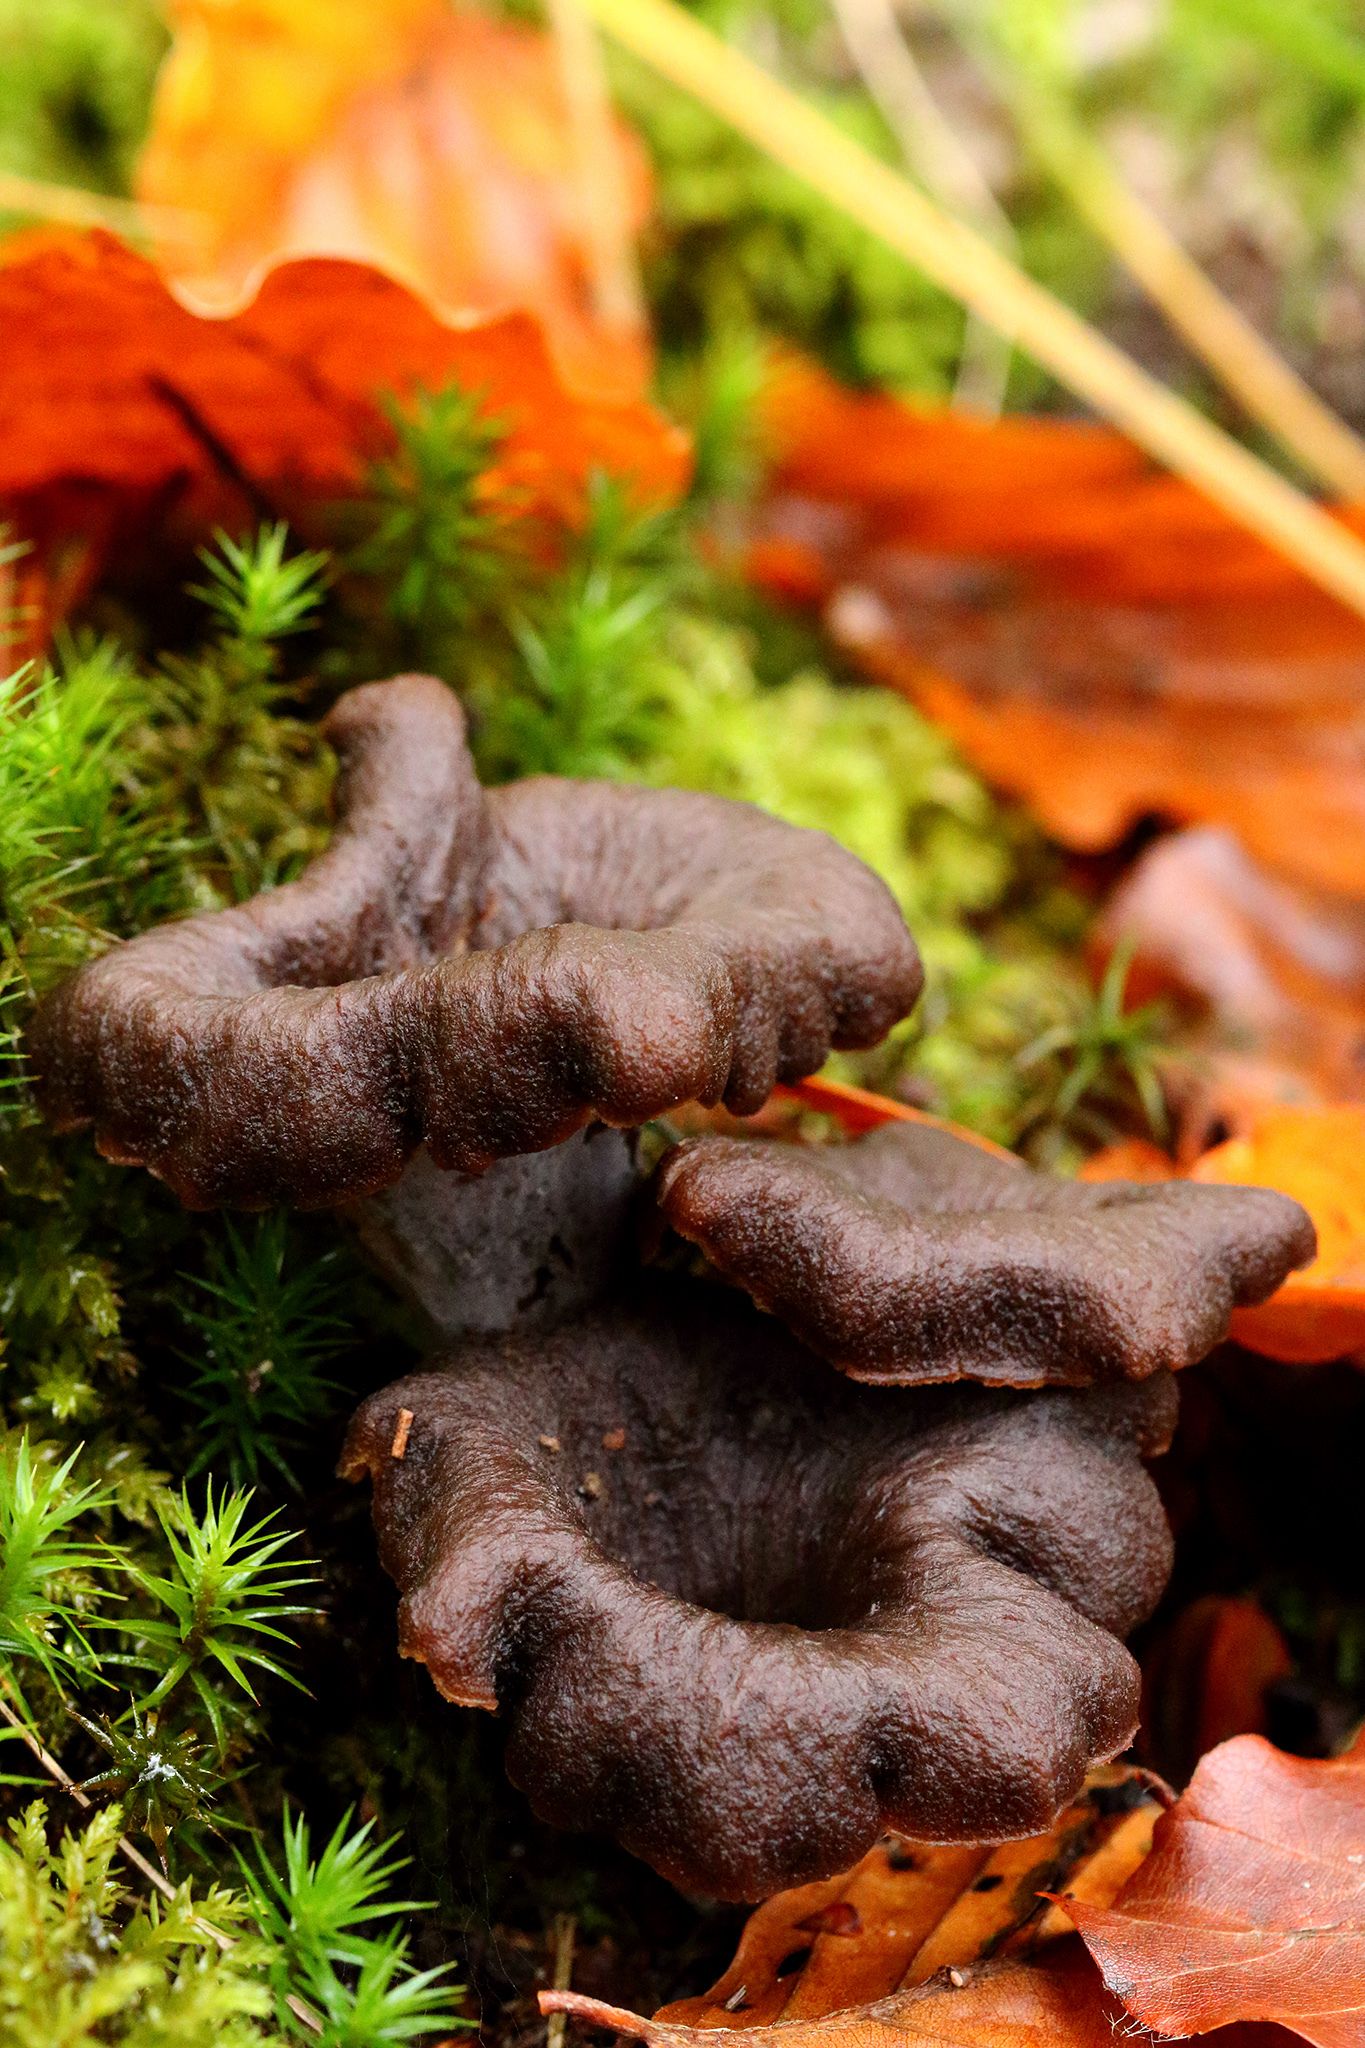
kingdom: Fungi
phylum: Basidiomycota
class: Agaricomycetes
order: Cantharellales
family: Hydnaceae
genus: Craterellus
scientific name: Craterellus cornucopioides
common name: Horn of plenty
